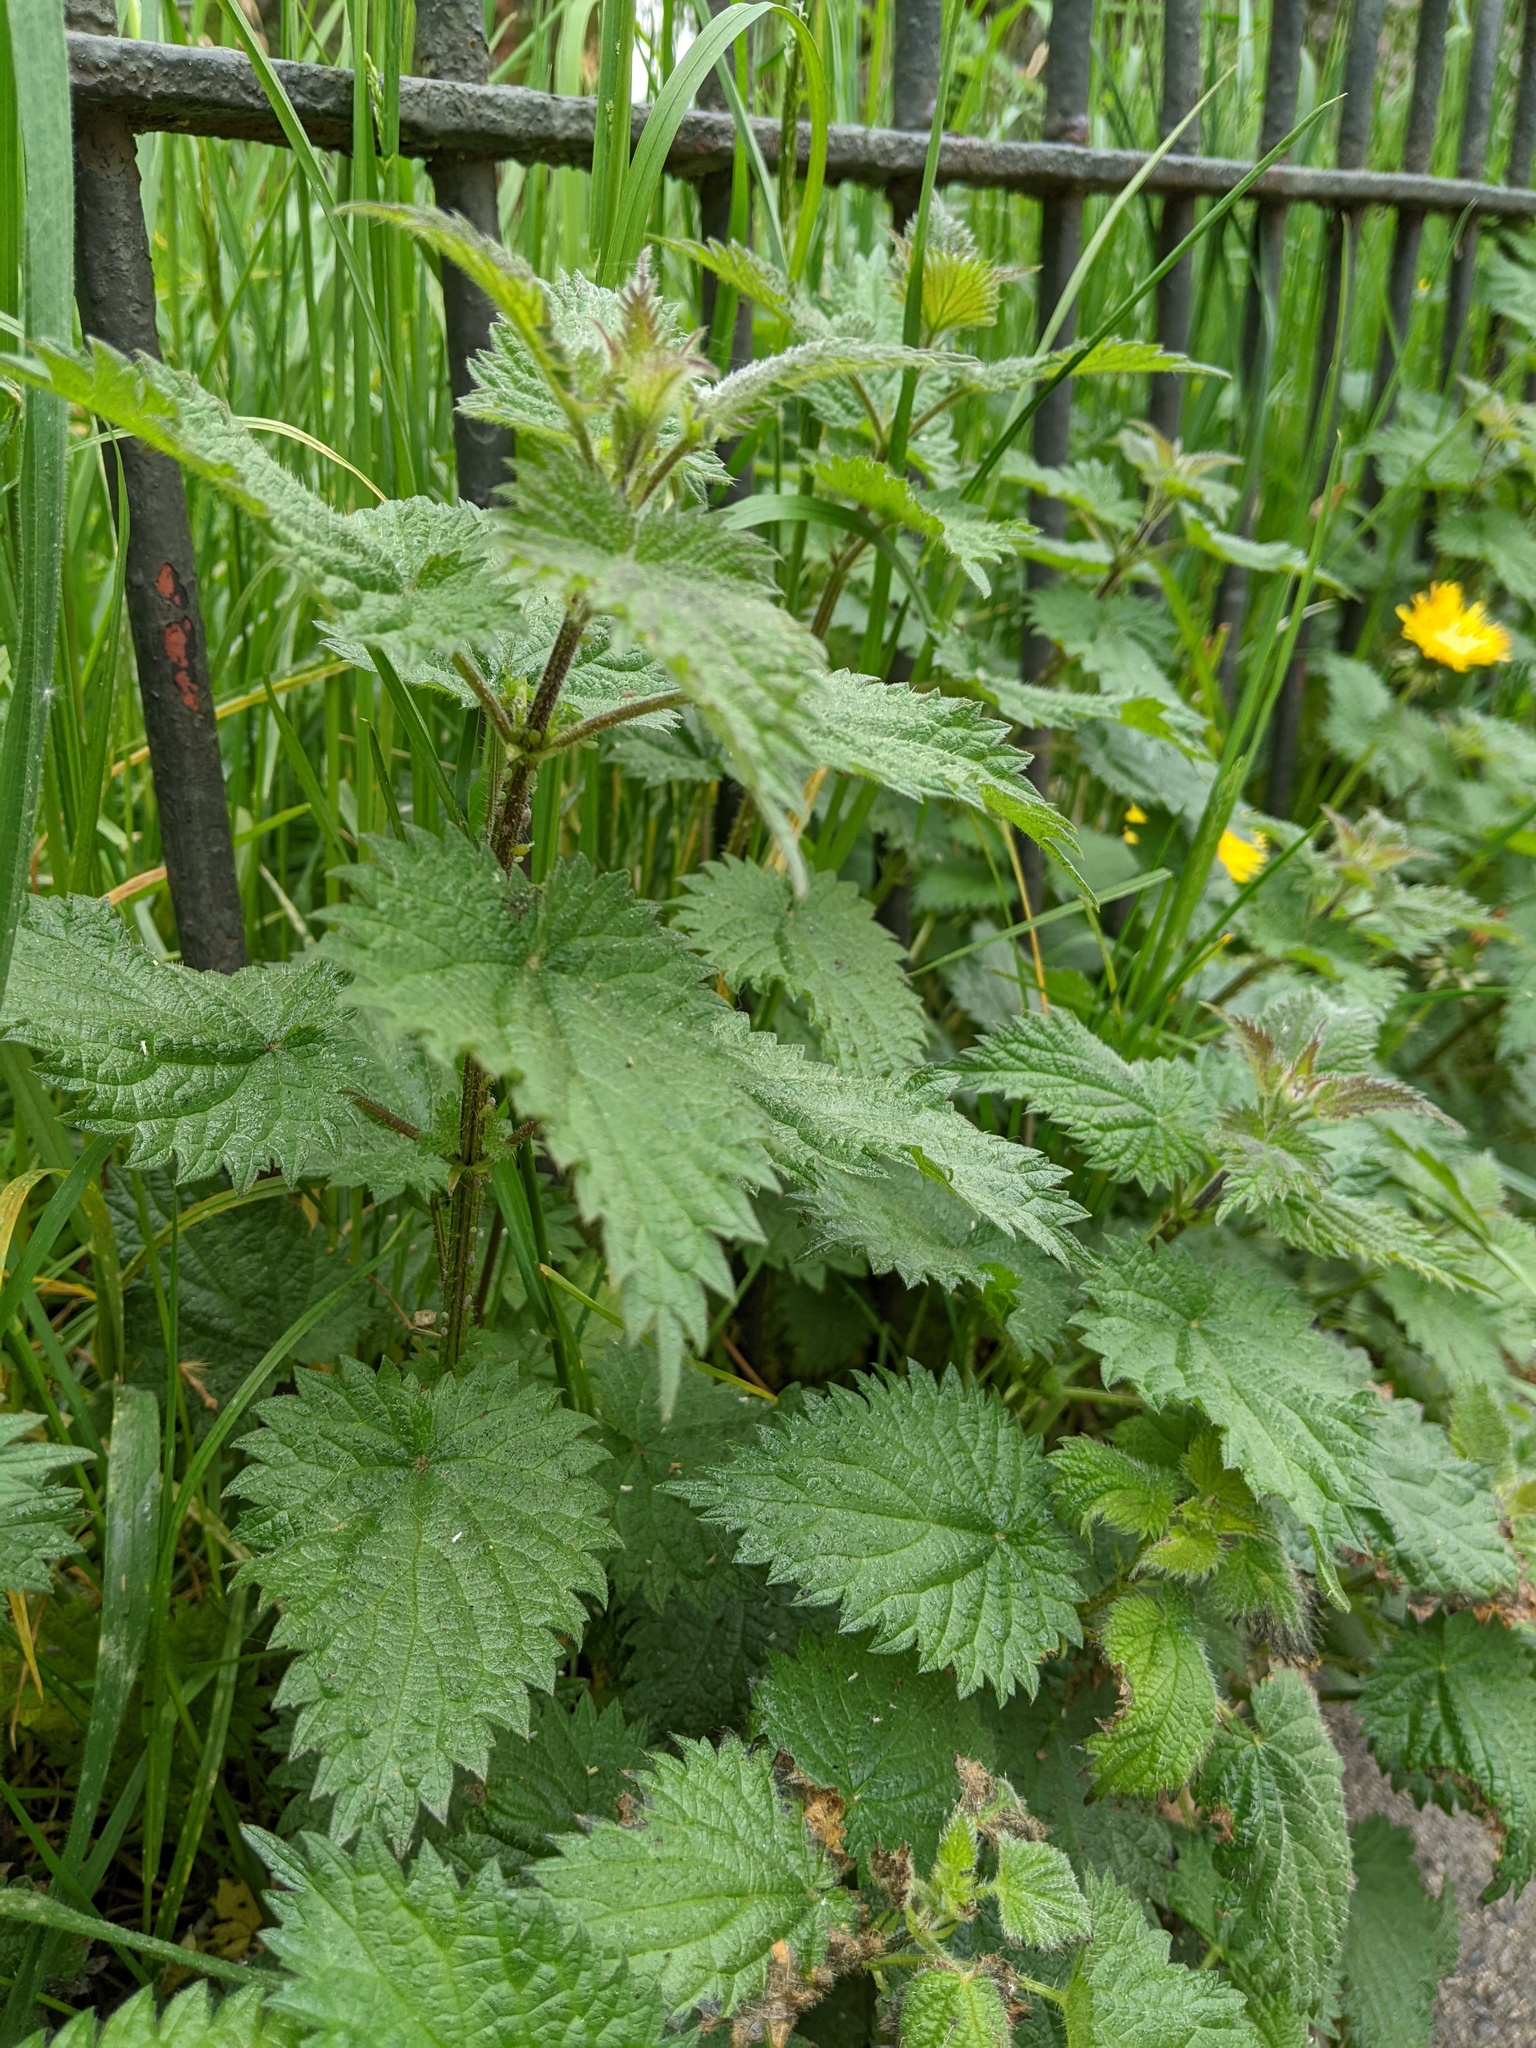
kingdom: Plantae
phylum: Tracheophyta
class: Magnoliopsida
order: Rosales
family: Urticaceae
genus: Urtica
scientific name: Urtica dioica
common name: Common nettle
